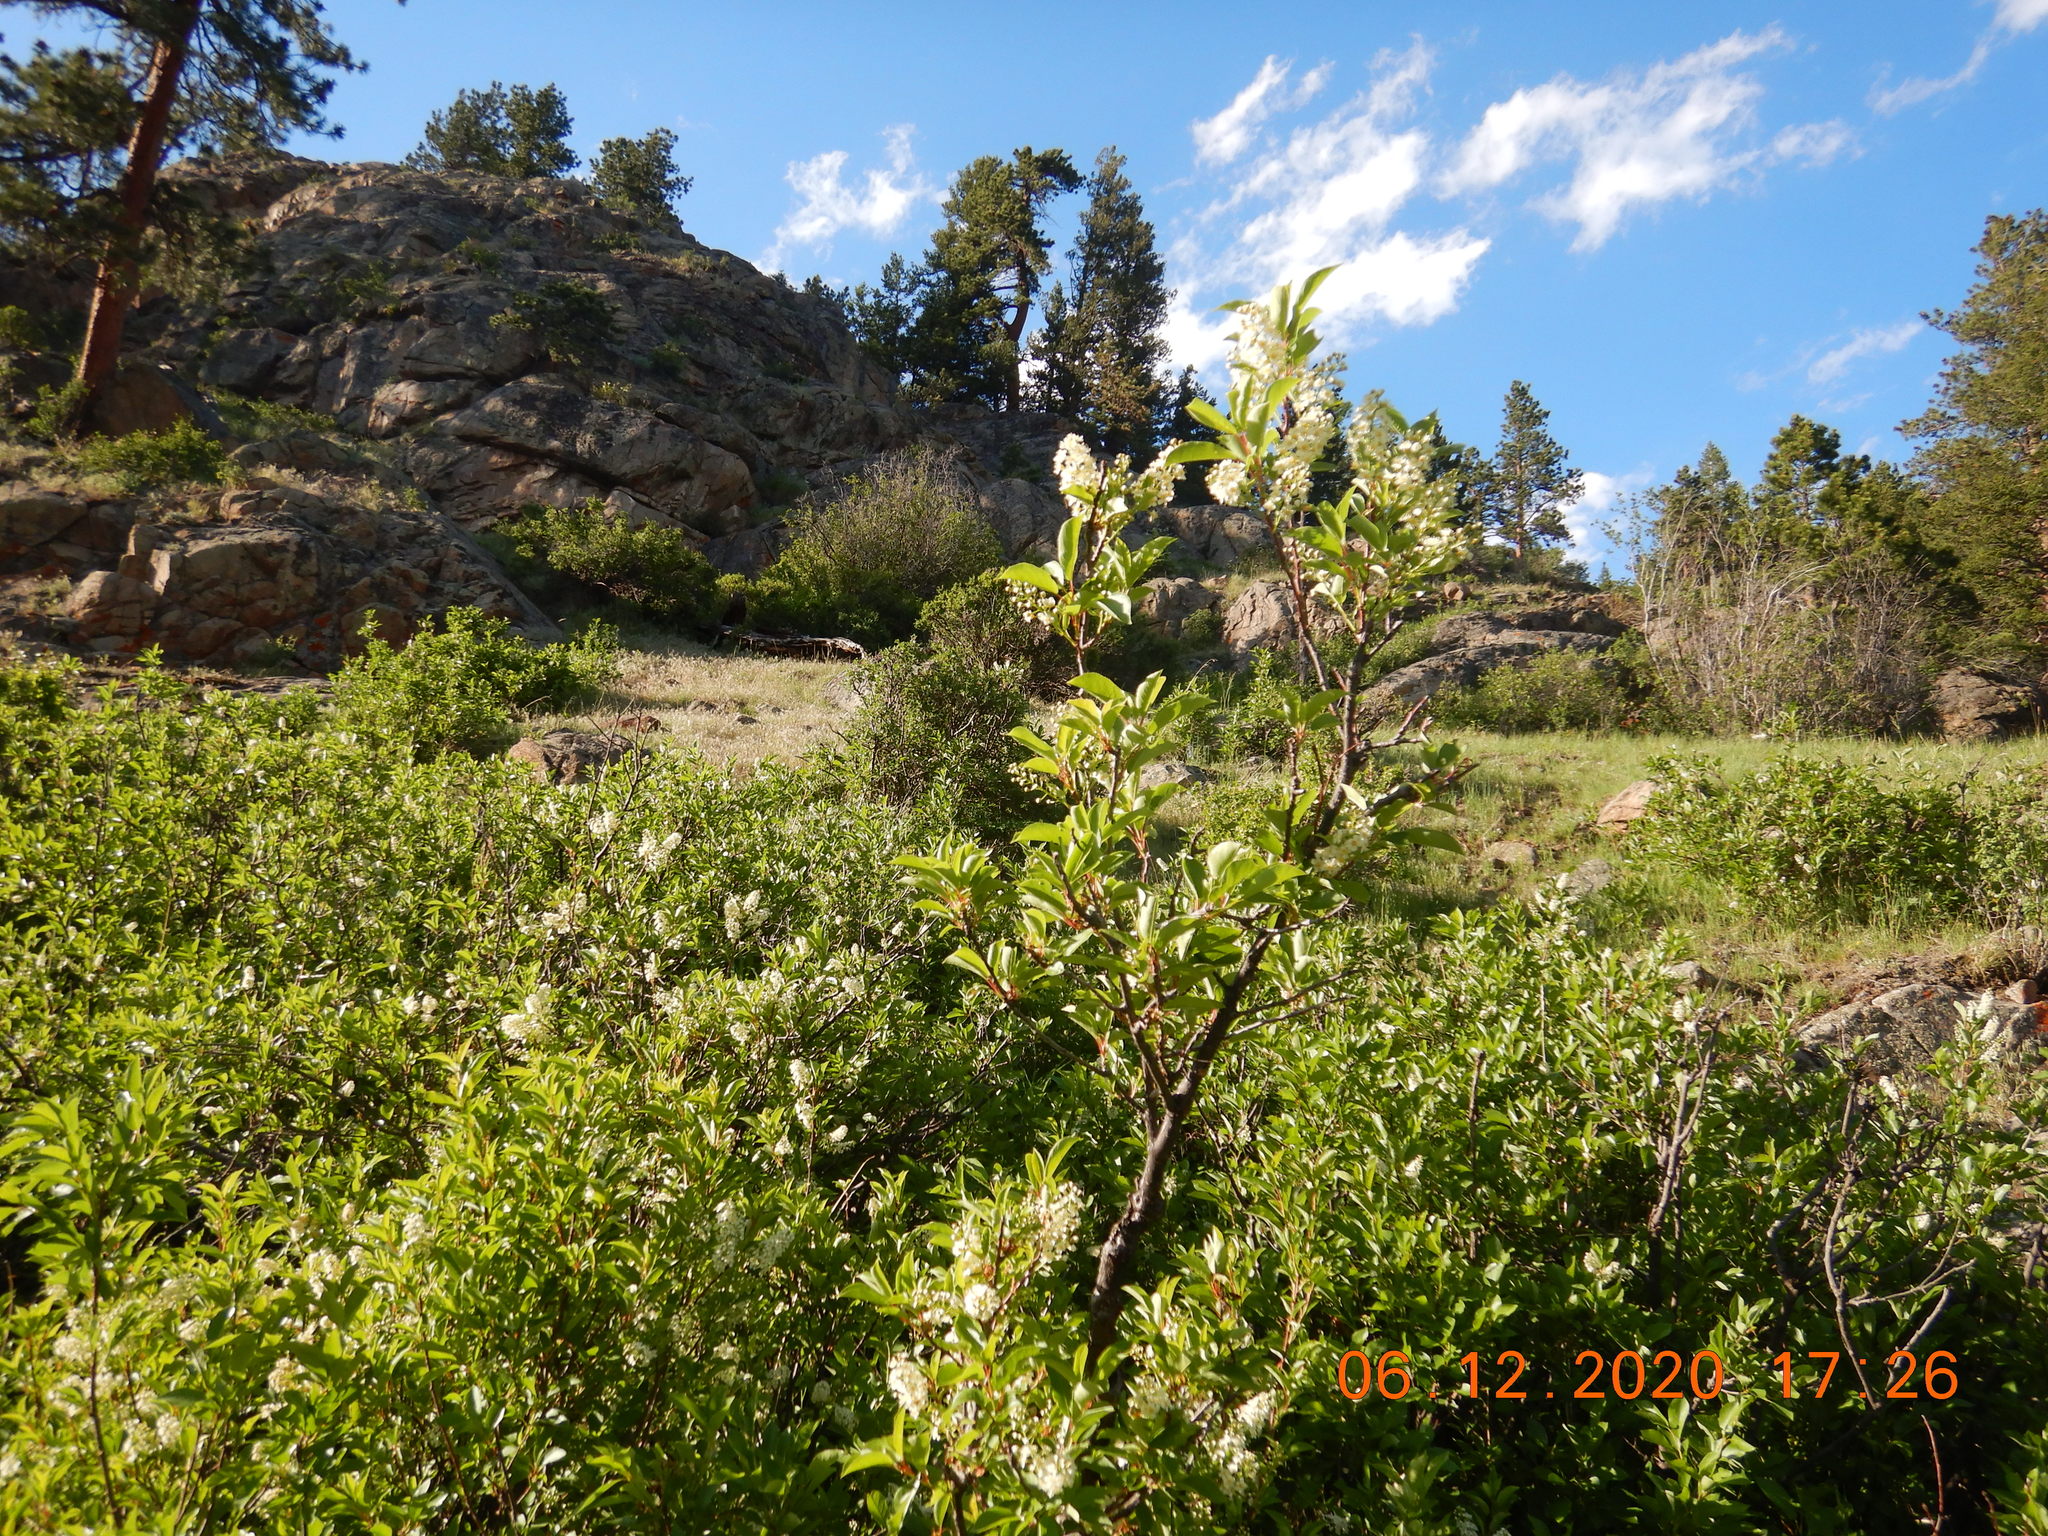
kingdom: Plantae
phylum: Tracheophyta
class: Magnoliopsida
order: Rosales
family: Rosaceae
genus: Prunus
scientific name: Prunus virginiana
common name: Chokecherry
